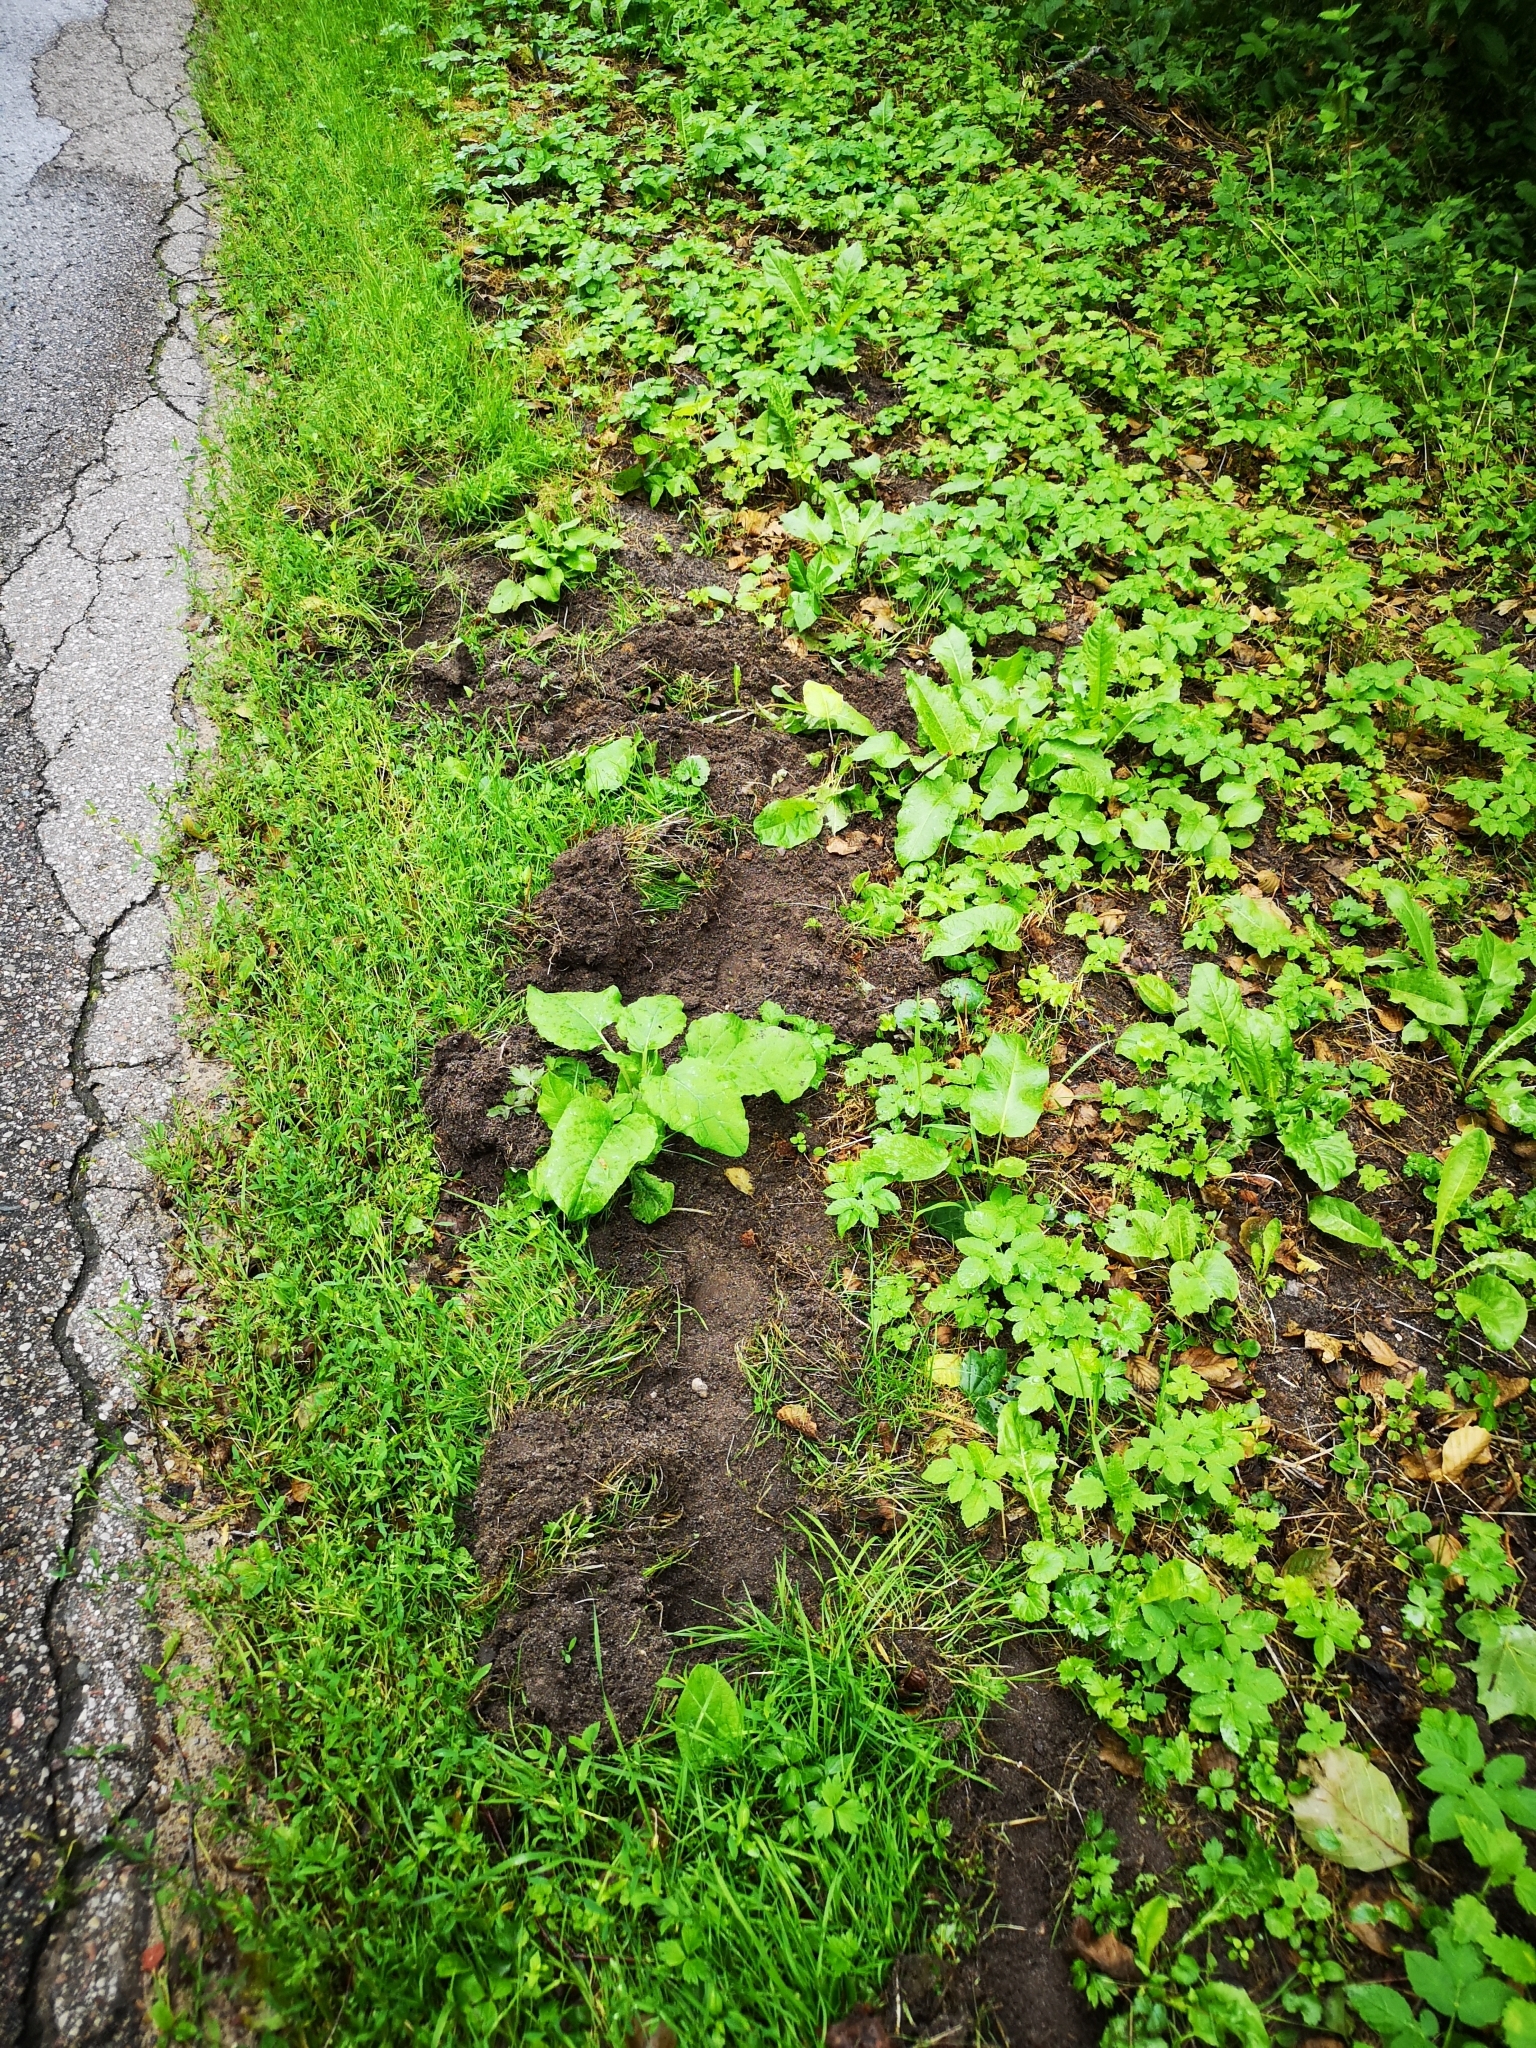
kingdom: Animalia
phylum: Chordata
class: Mammalia
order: Artiodactyla
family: Suidae
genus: Sus
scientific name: Sus scrofa
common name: Wild boar
